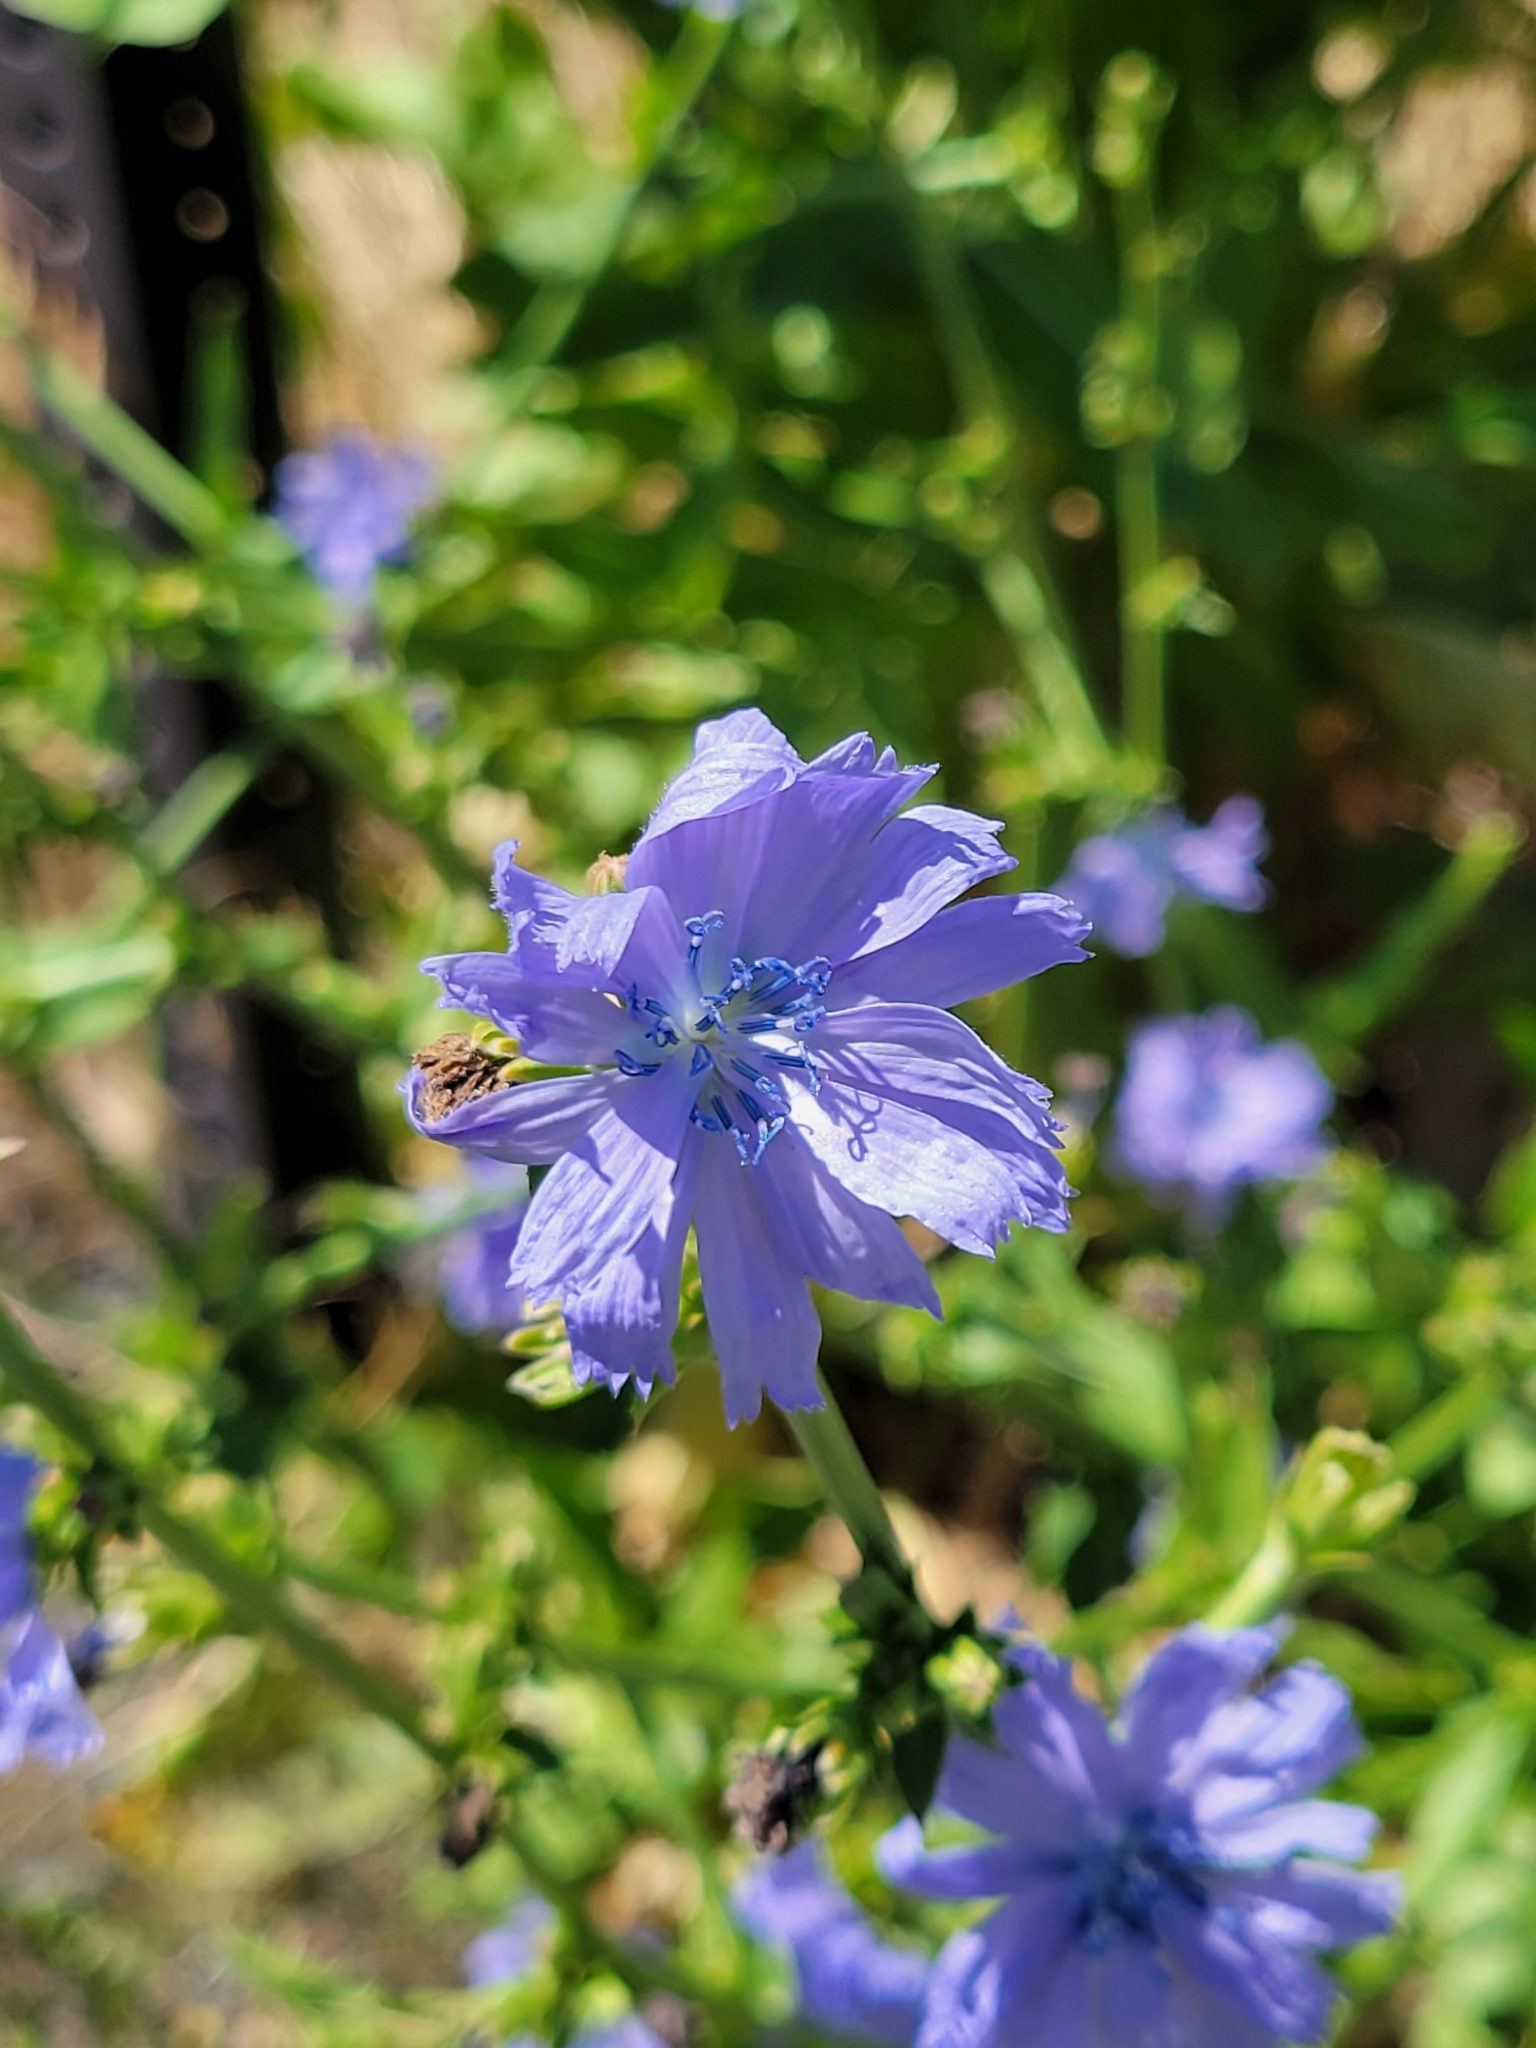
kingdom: Plantae
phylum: Tracheophyta
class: Magnoliopsida
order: Asterales
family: Asteraceae
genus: Cichorium
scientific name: Cichorium intybus
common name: Chicory
